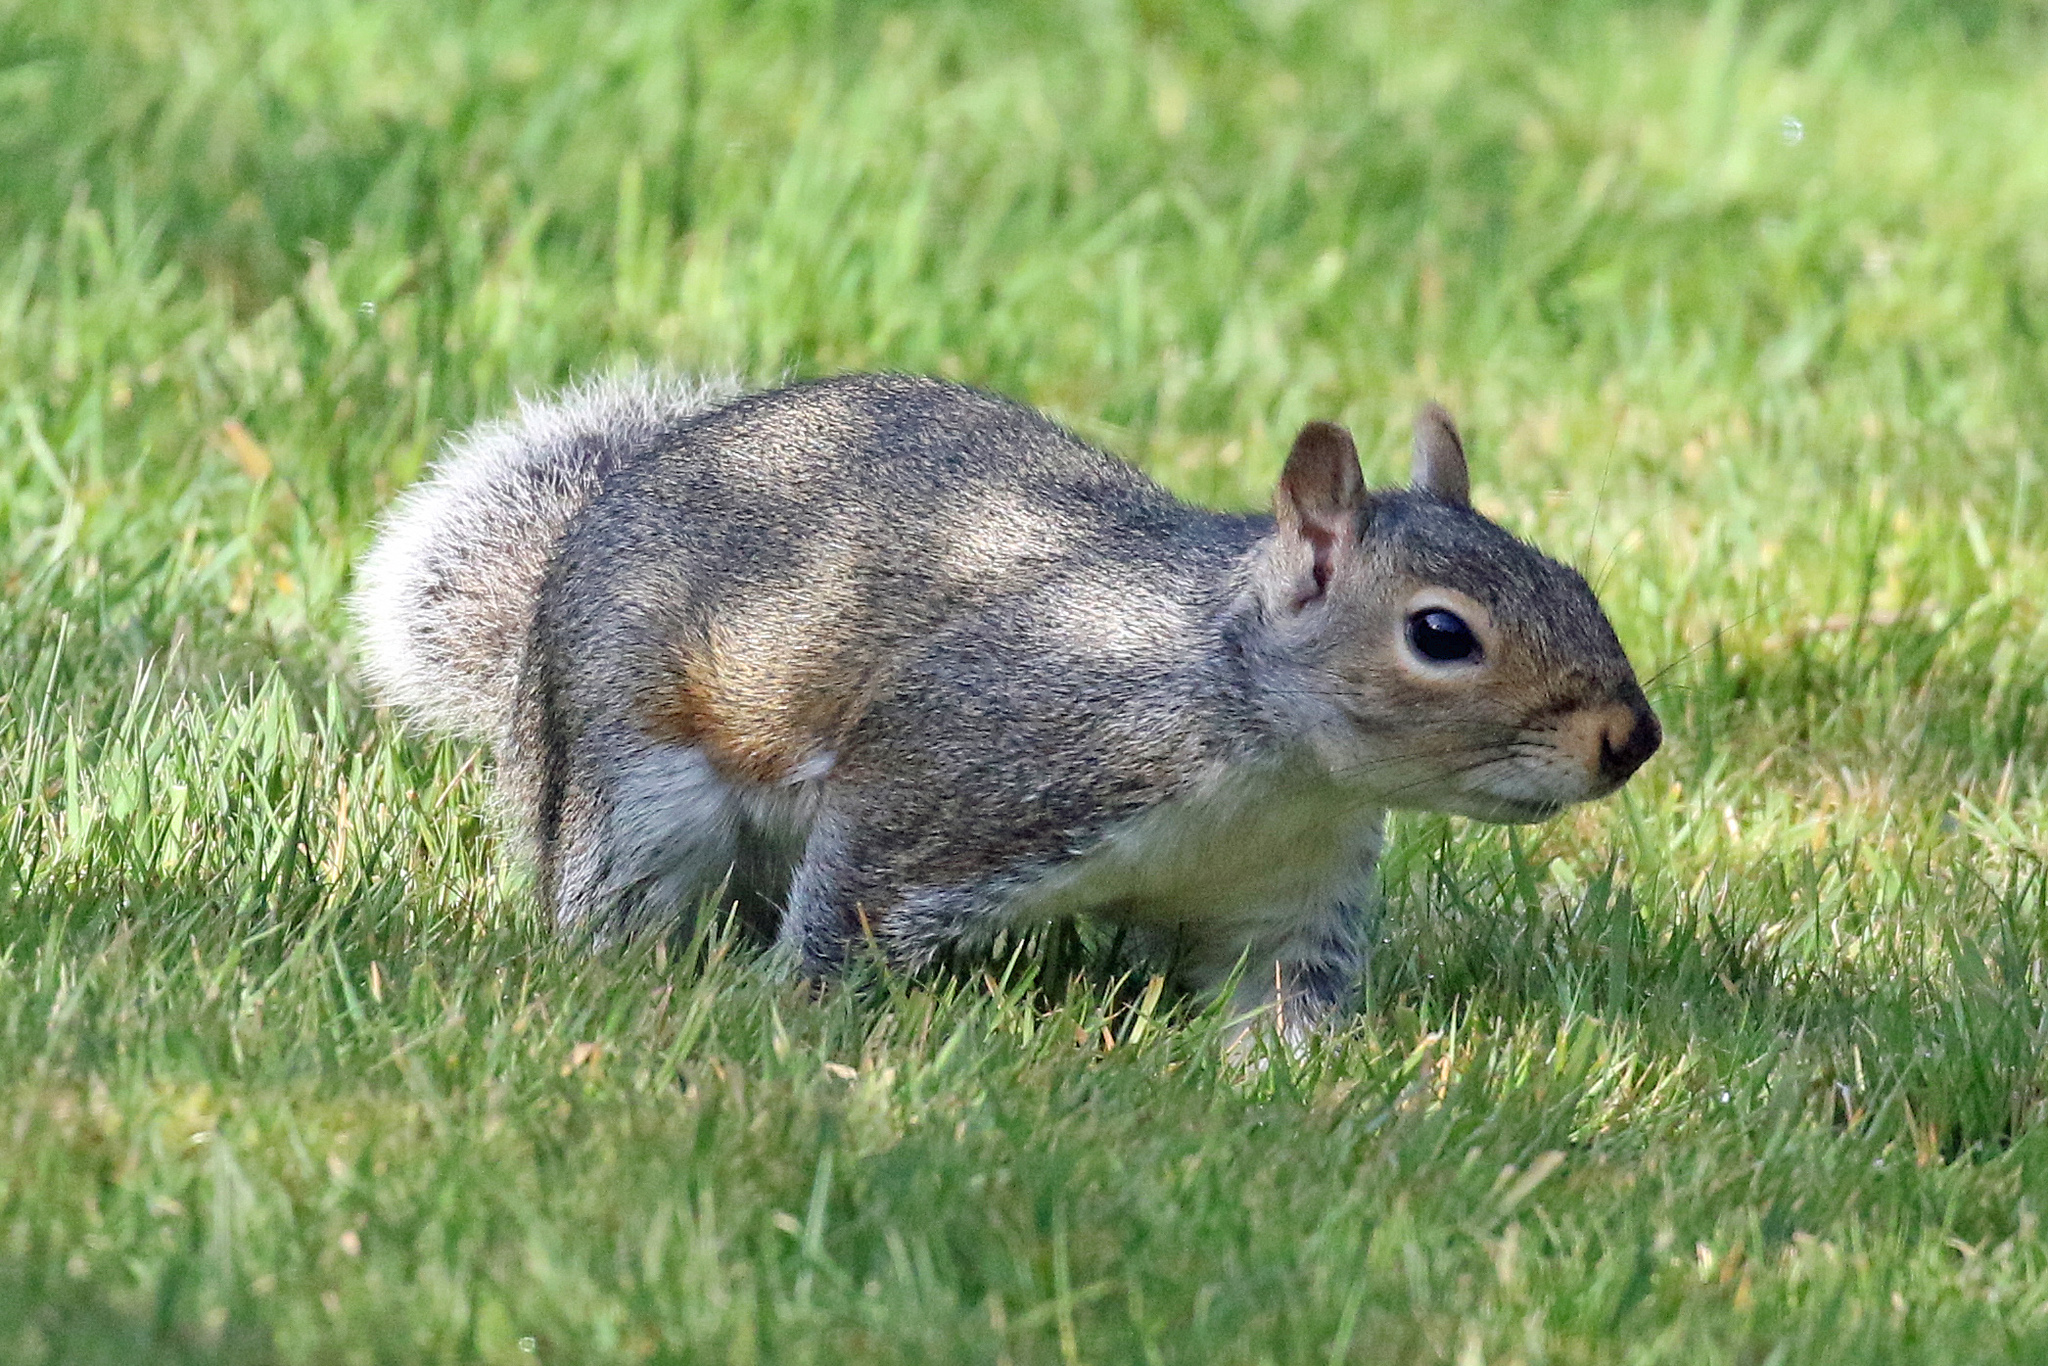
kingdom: Animalia
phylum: Chordata
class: Mammalia
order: Rodentia
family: Sciuridae
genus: Sciurus
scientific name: Sciurus carolinensis
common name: Eastern gray squirrel
